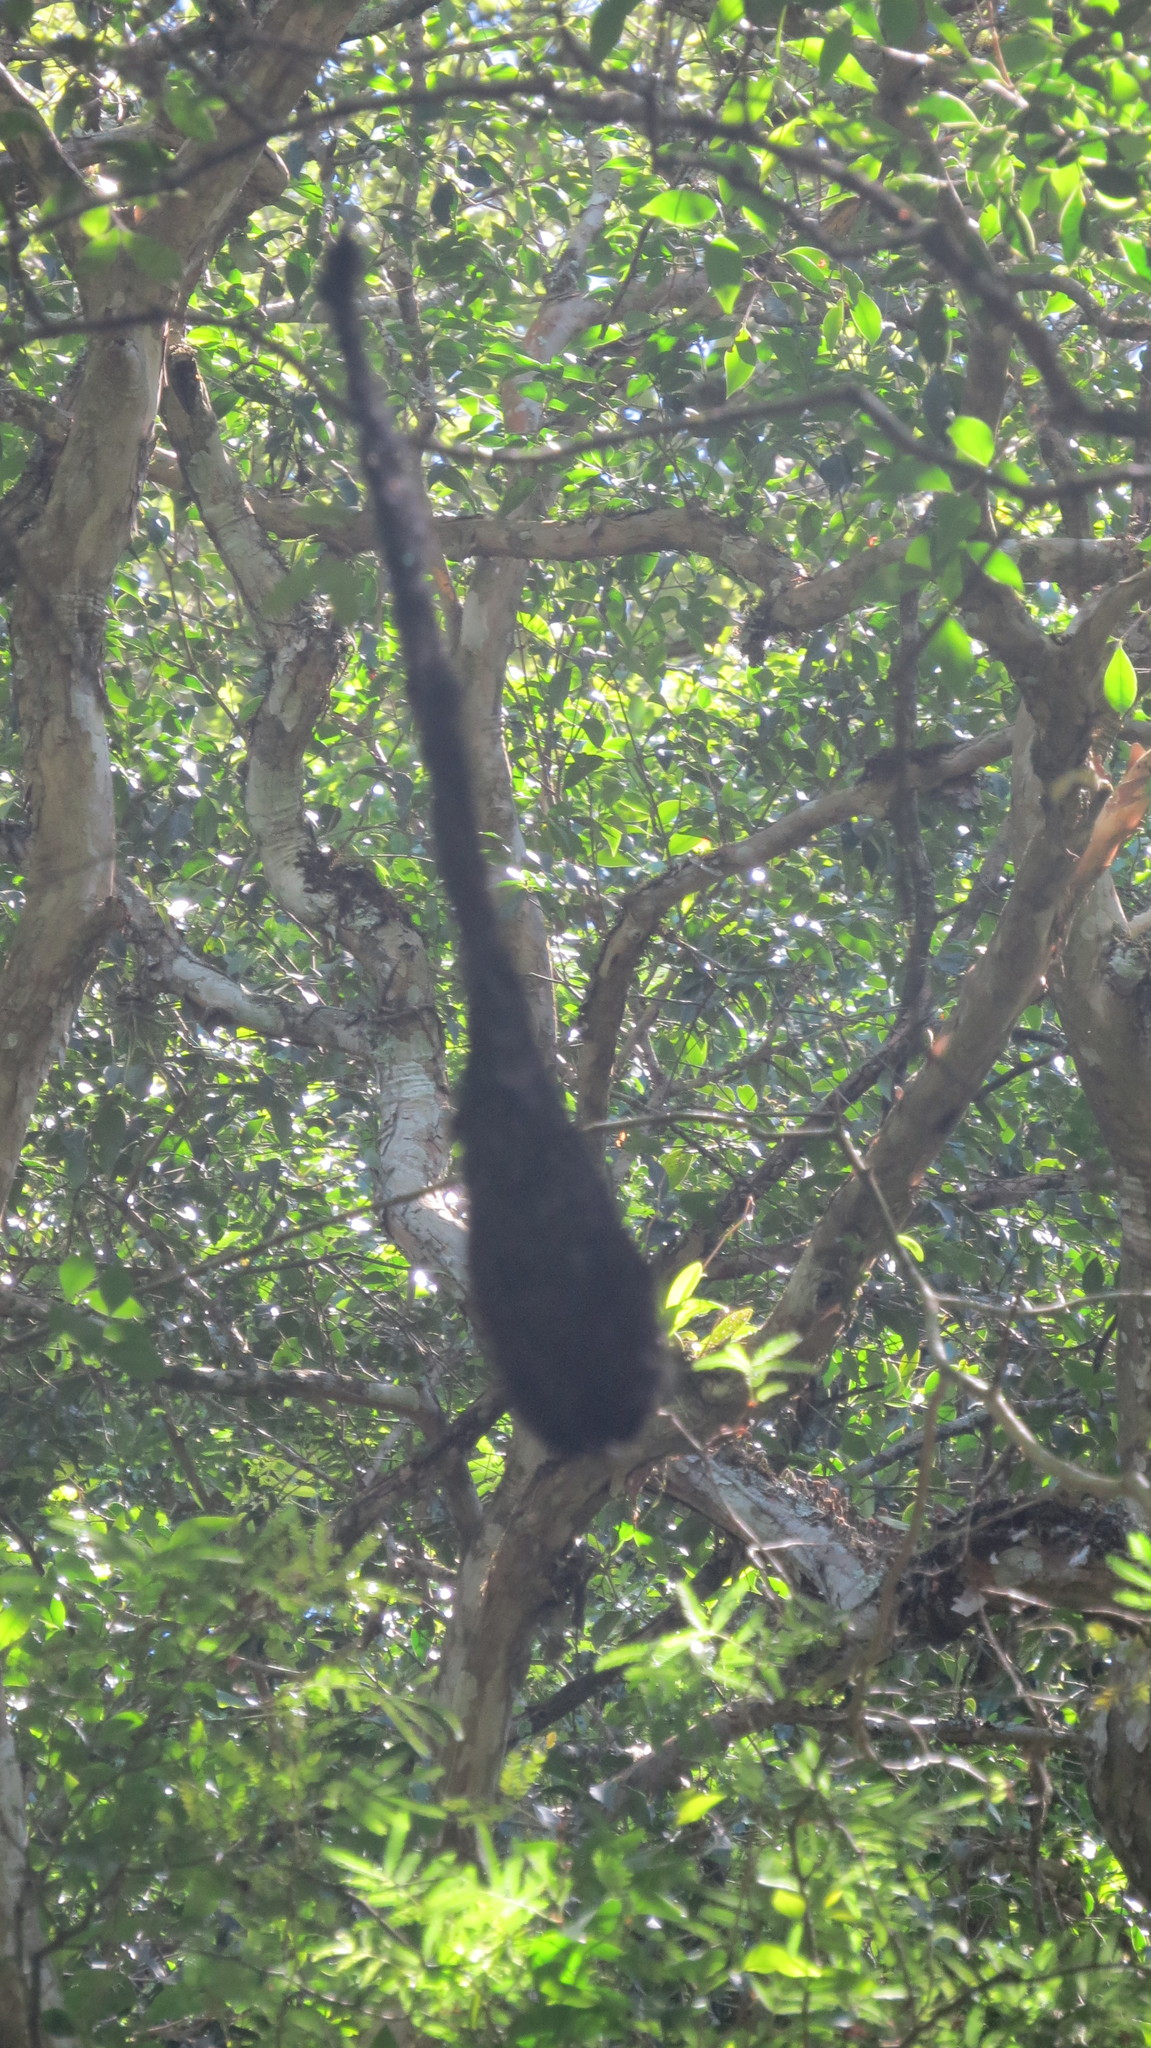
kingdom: Animalia
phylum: Chordata
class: Aves
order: Passeriformes
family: Icteridae
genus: Cacicus
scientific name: Cacicus chrysopterus
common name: Golden-winged cacique
